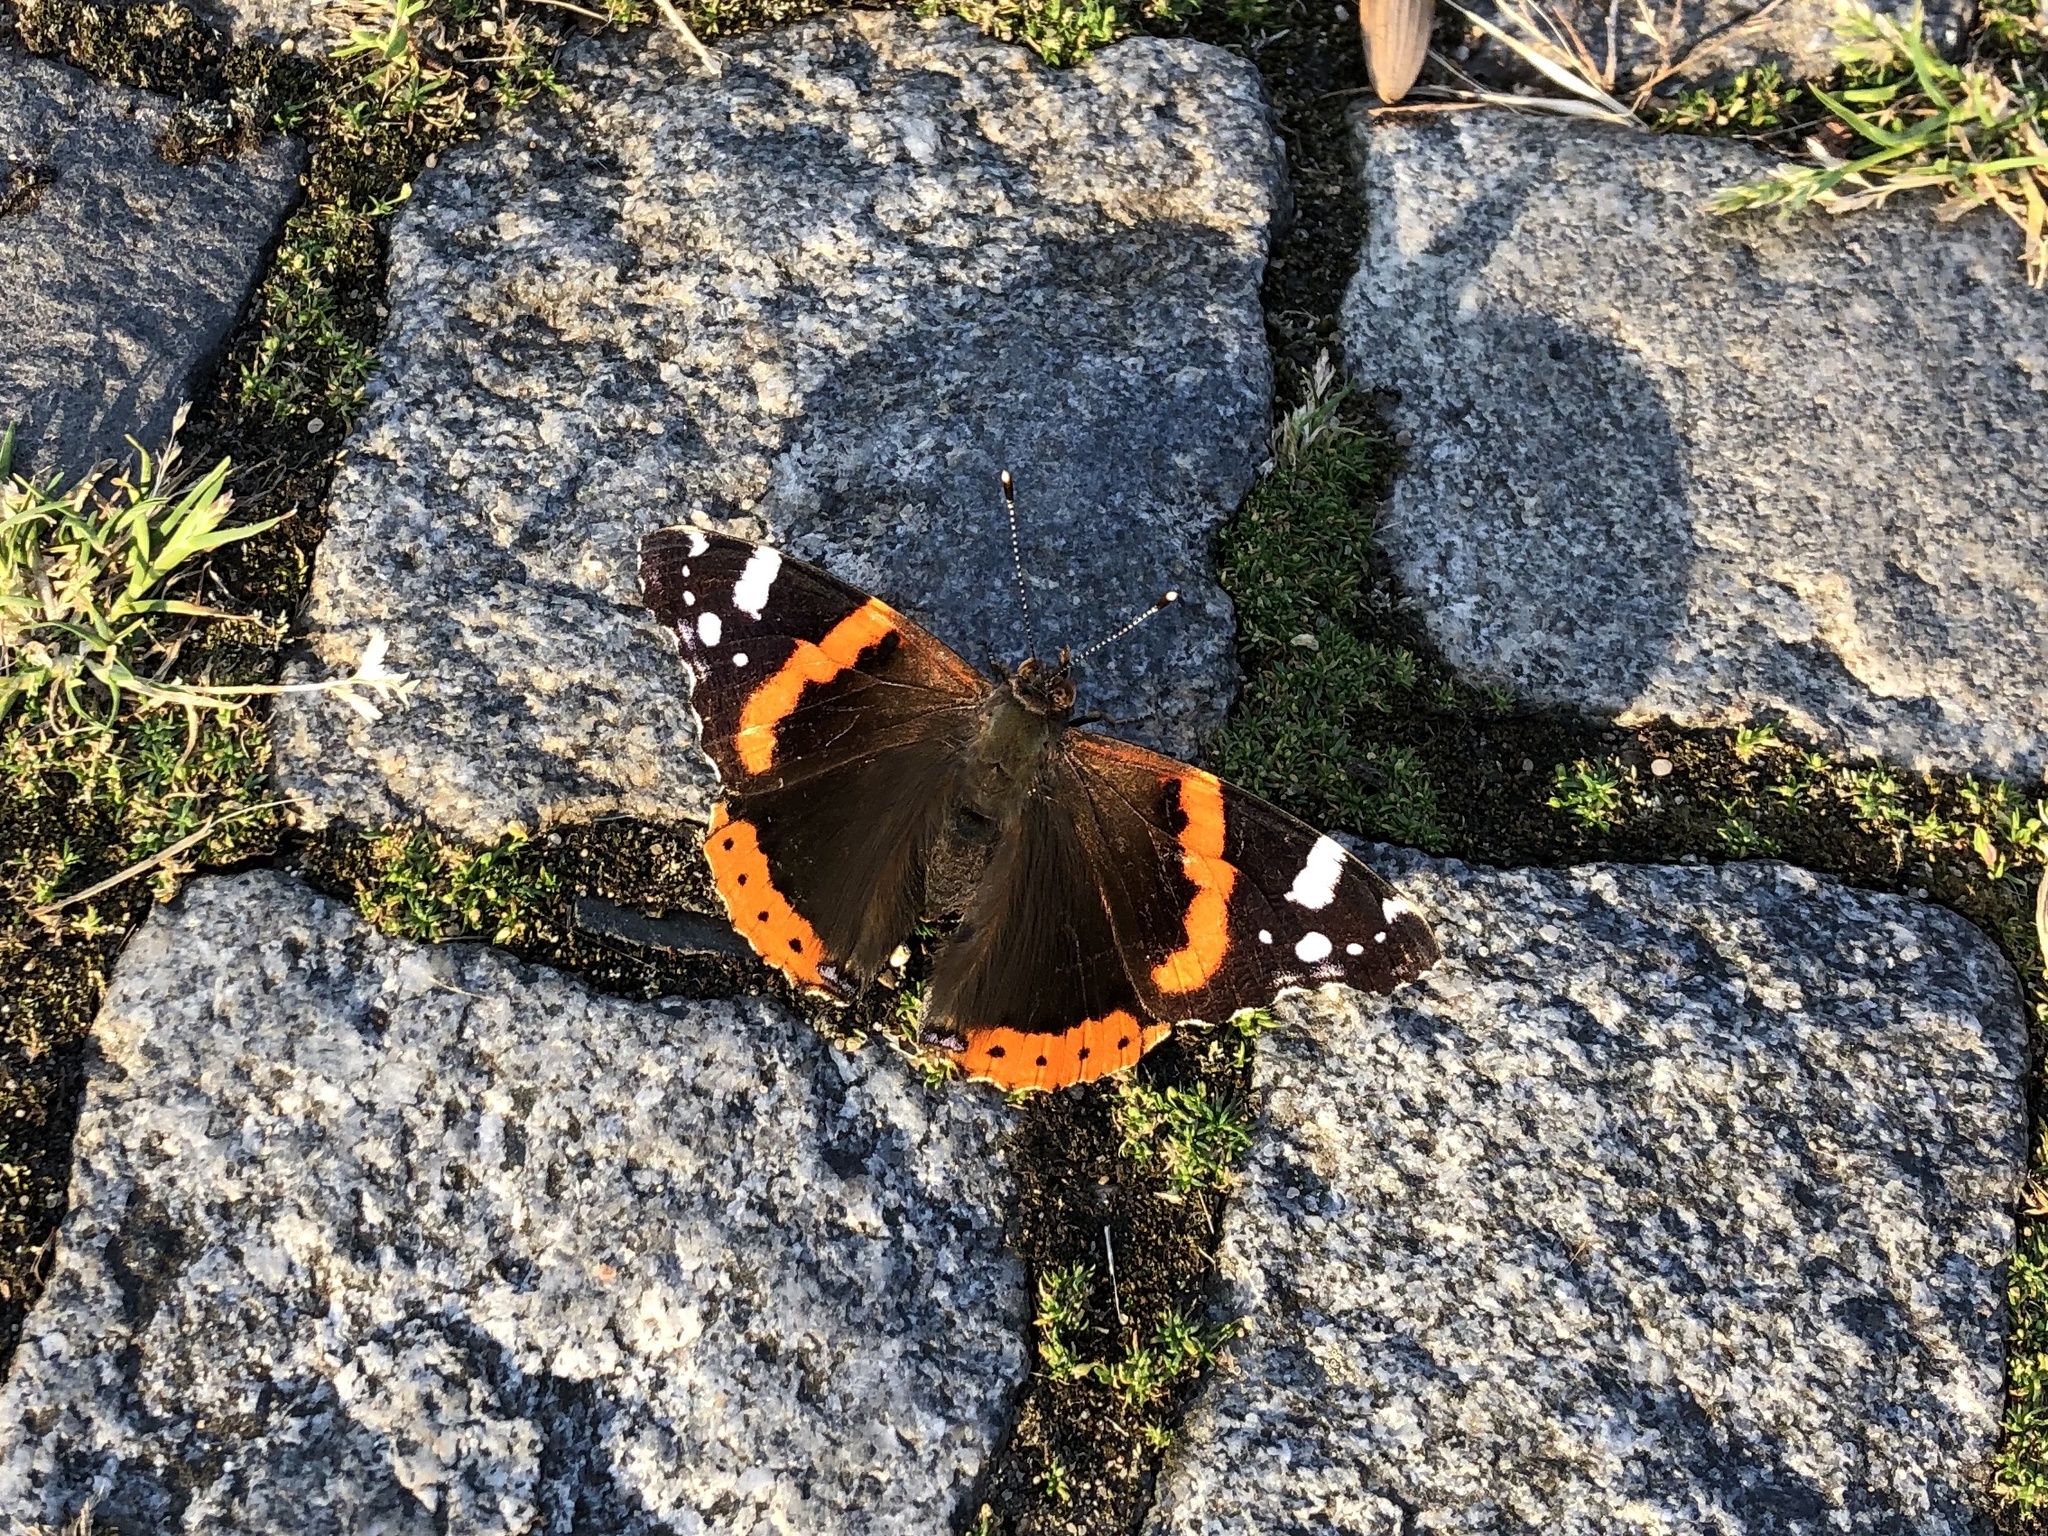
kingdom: Animalia
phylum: Arthropoda
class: Insecta
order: Lepidoptera
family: Nymphalidae
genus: Vanessa
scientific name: Vanessa atalanta
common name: Red admiral
